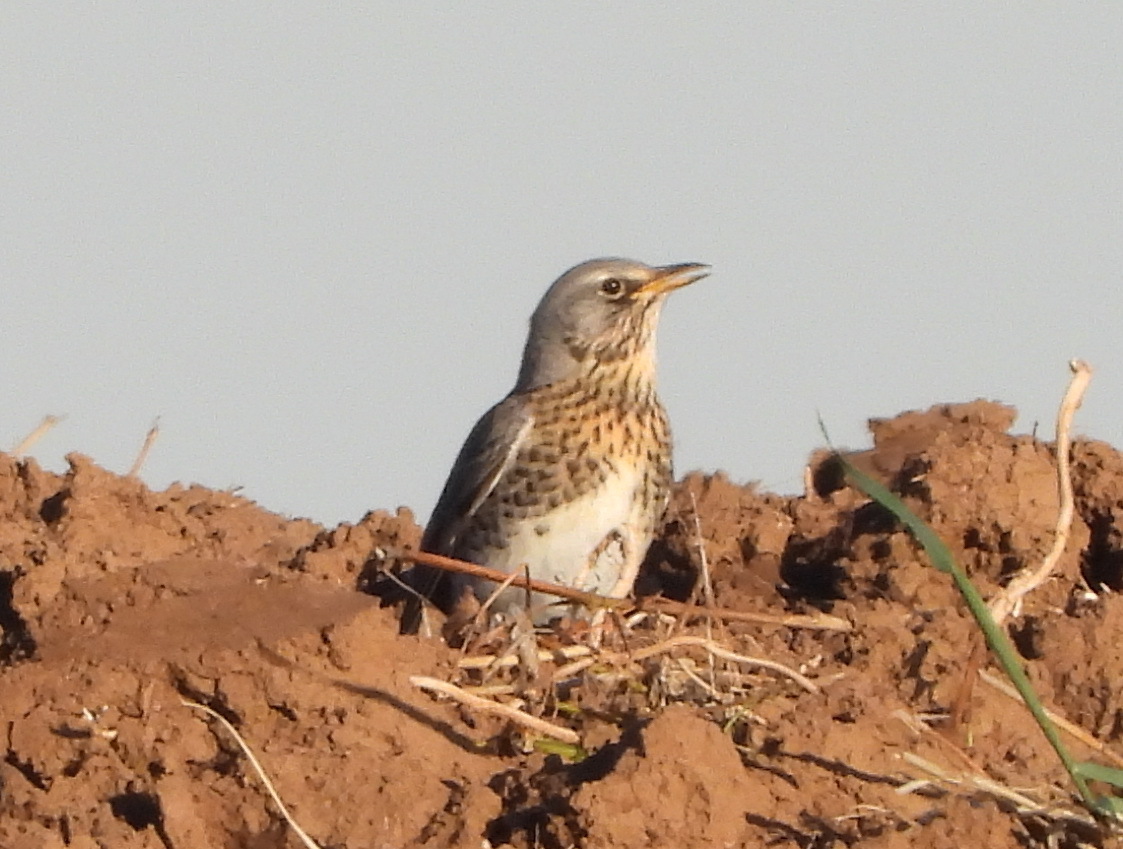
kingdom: Animalia
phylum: Chordata
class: Aves
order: Passeriformes
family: Turdidae
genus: Turdus
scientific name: Turdus pilaris
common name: Fieldfare
